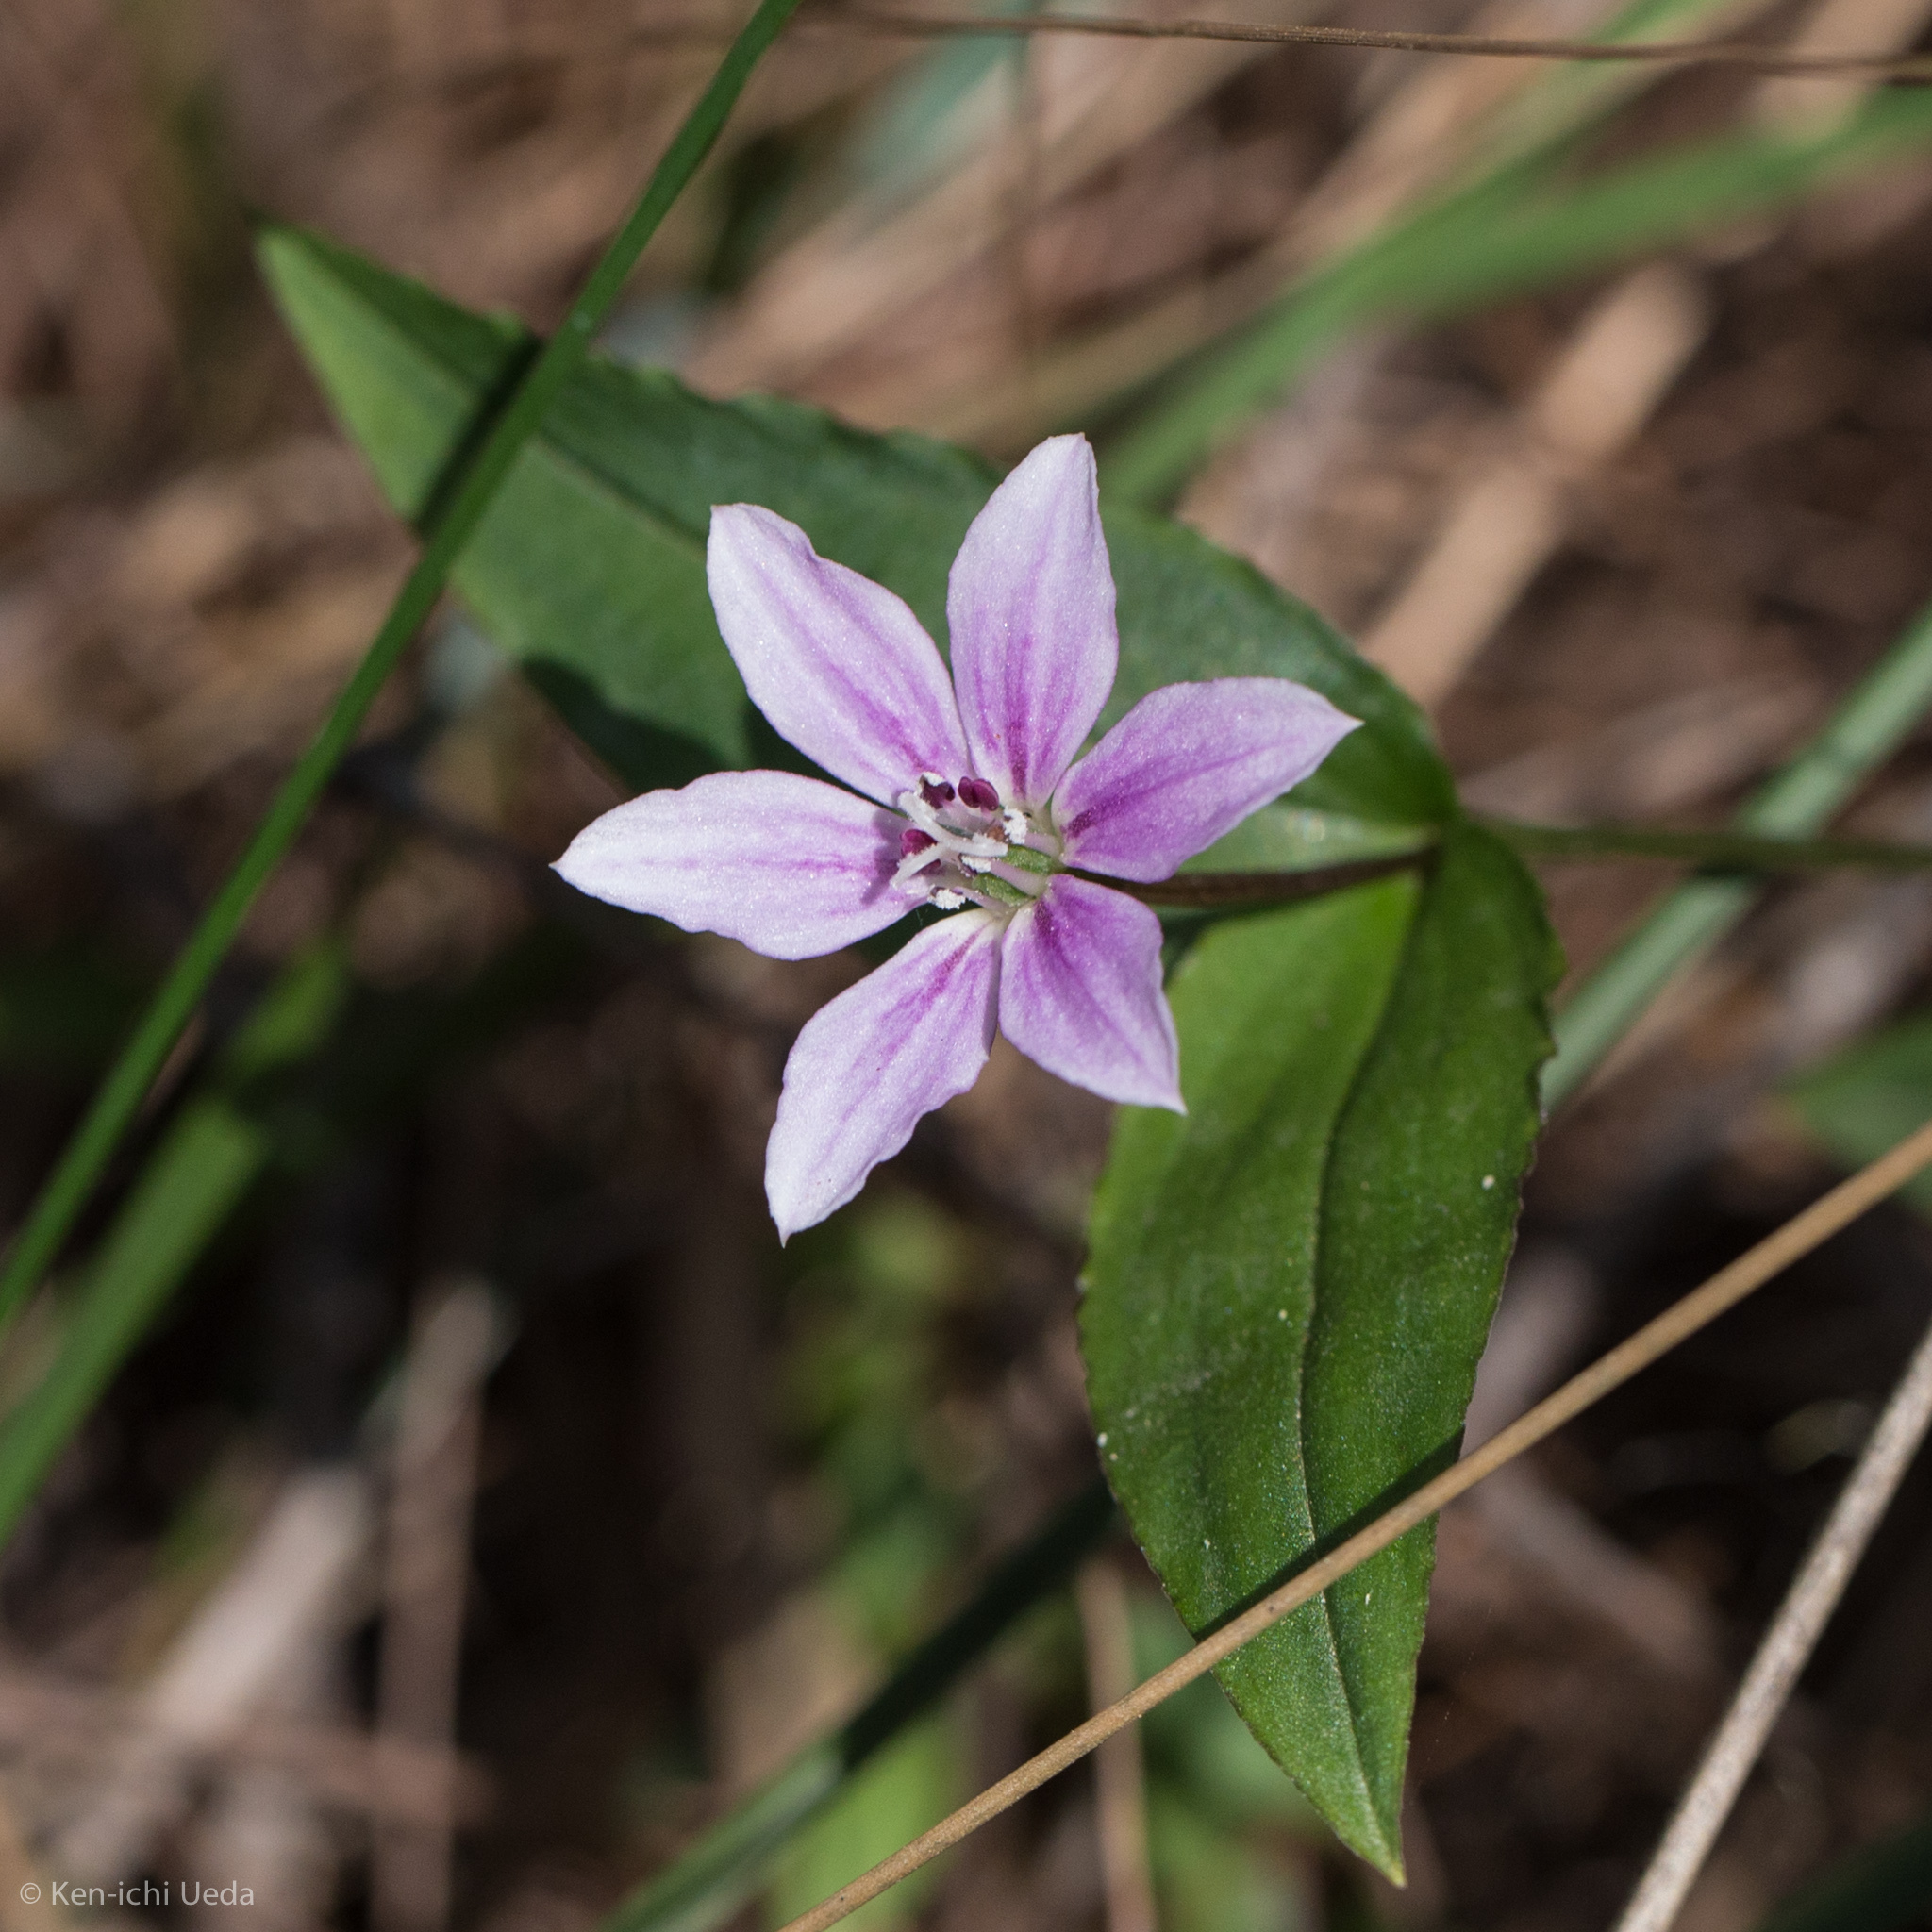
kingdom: Plantae
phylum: Tracheophyta
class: Liliopsida
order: Liliales
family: Colchicaceae
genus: Schelhammera
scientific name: Schelhammera undulata
